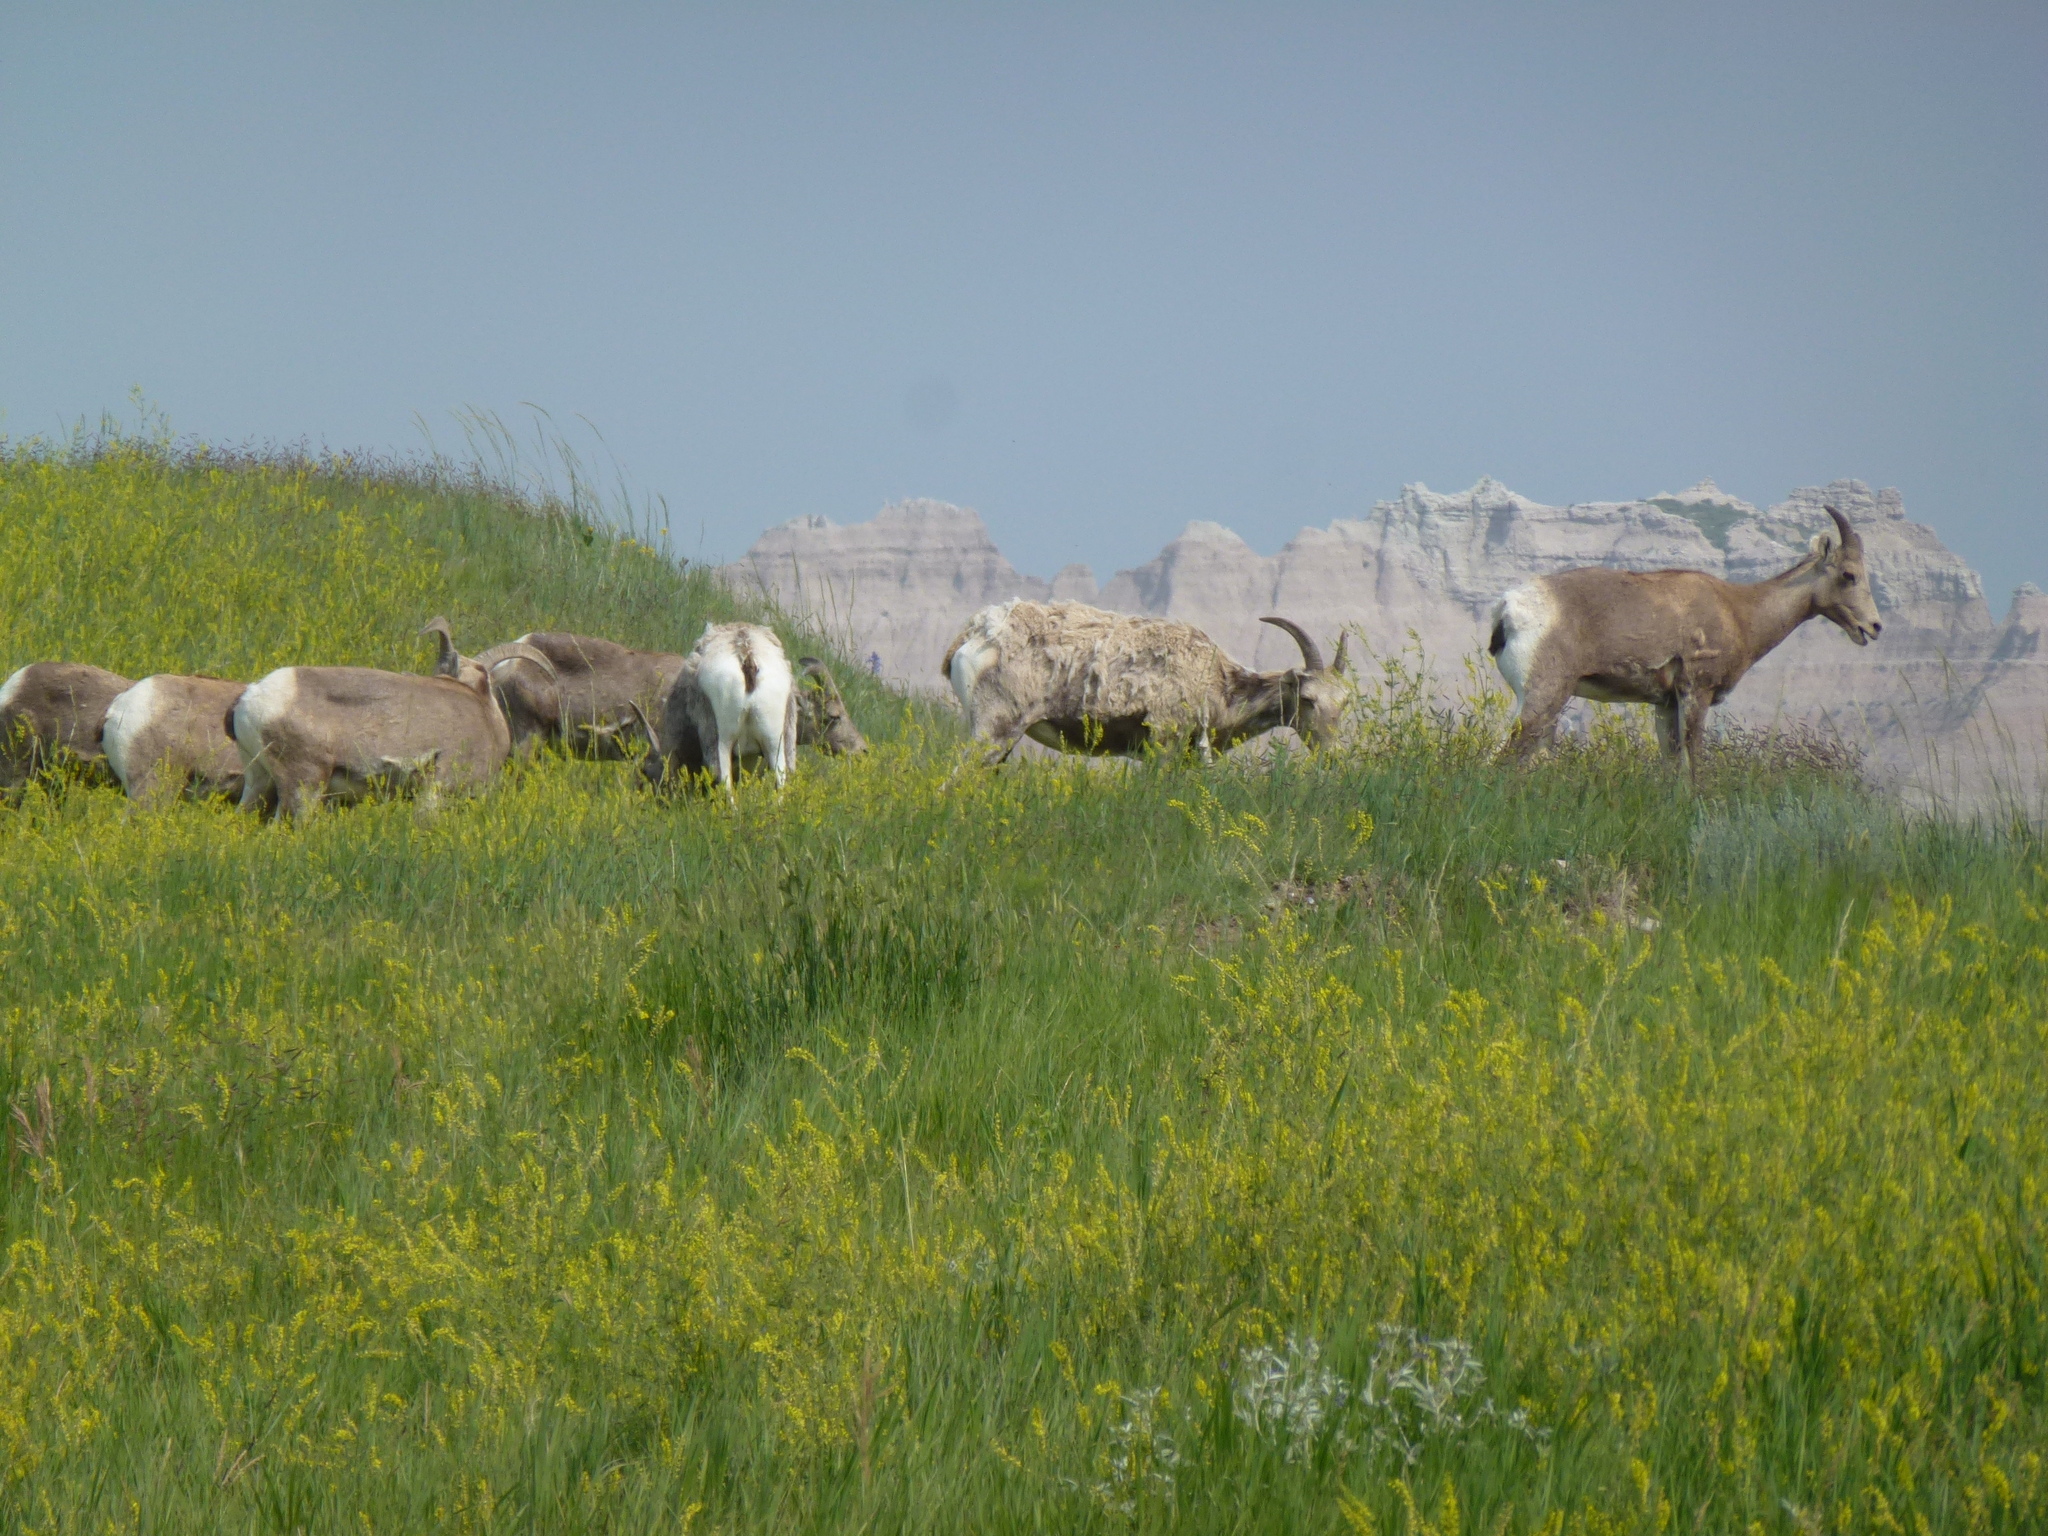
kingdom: Animalia
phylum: Chordata
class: Mammalia
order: Artiodactyla
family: Bovidae
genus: Ovis
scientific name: Ovis canadensis
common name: Bighorn sheep
